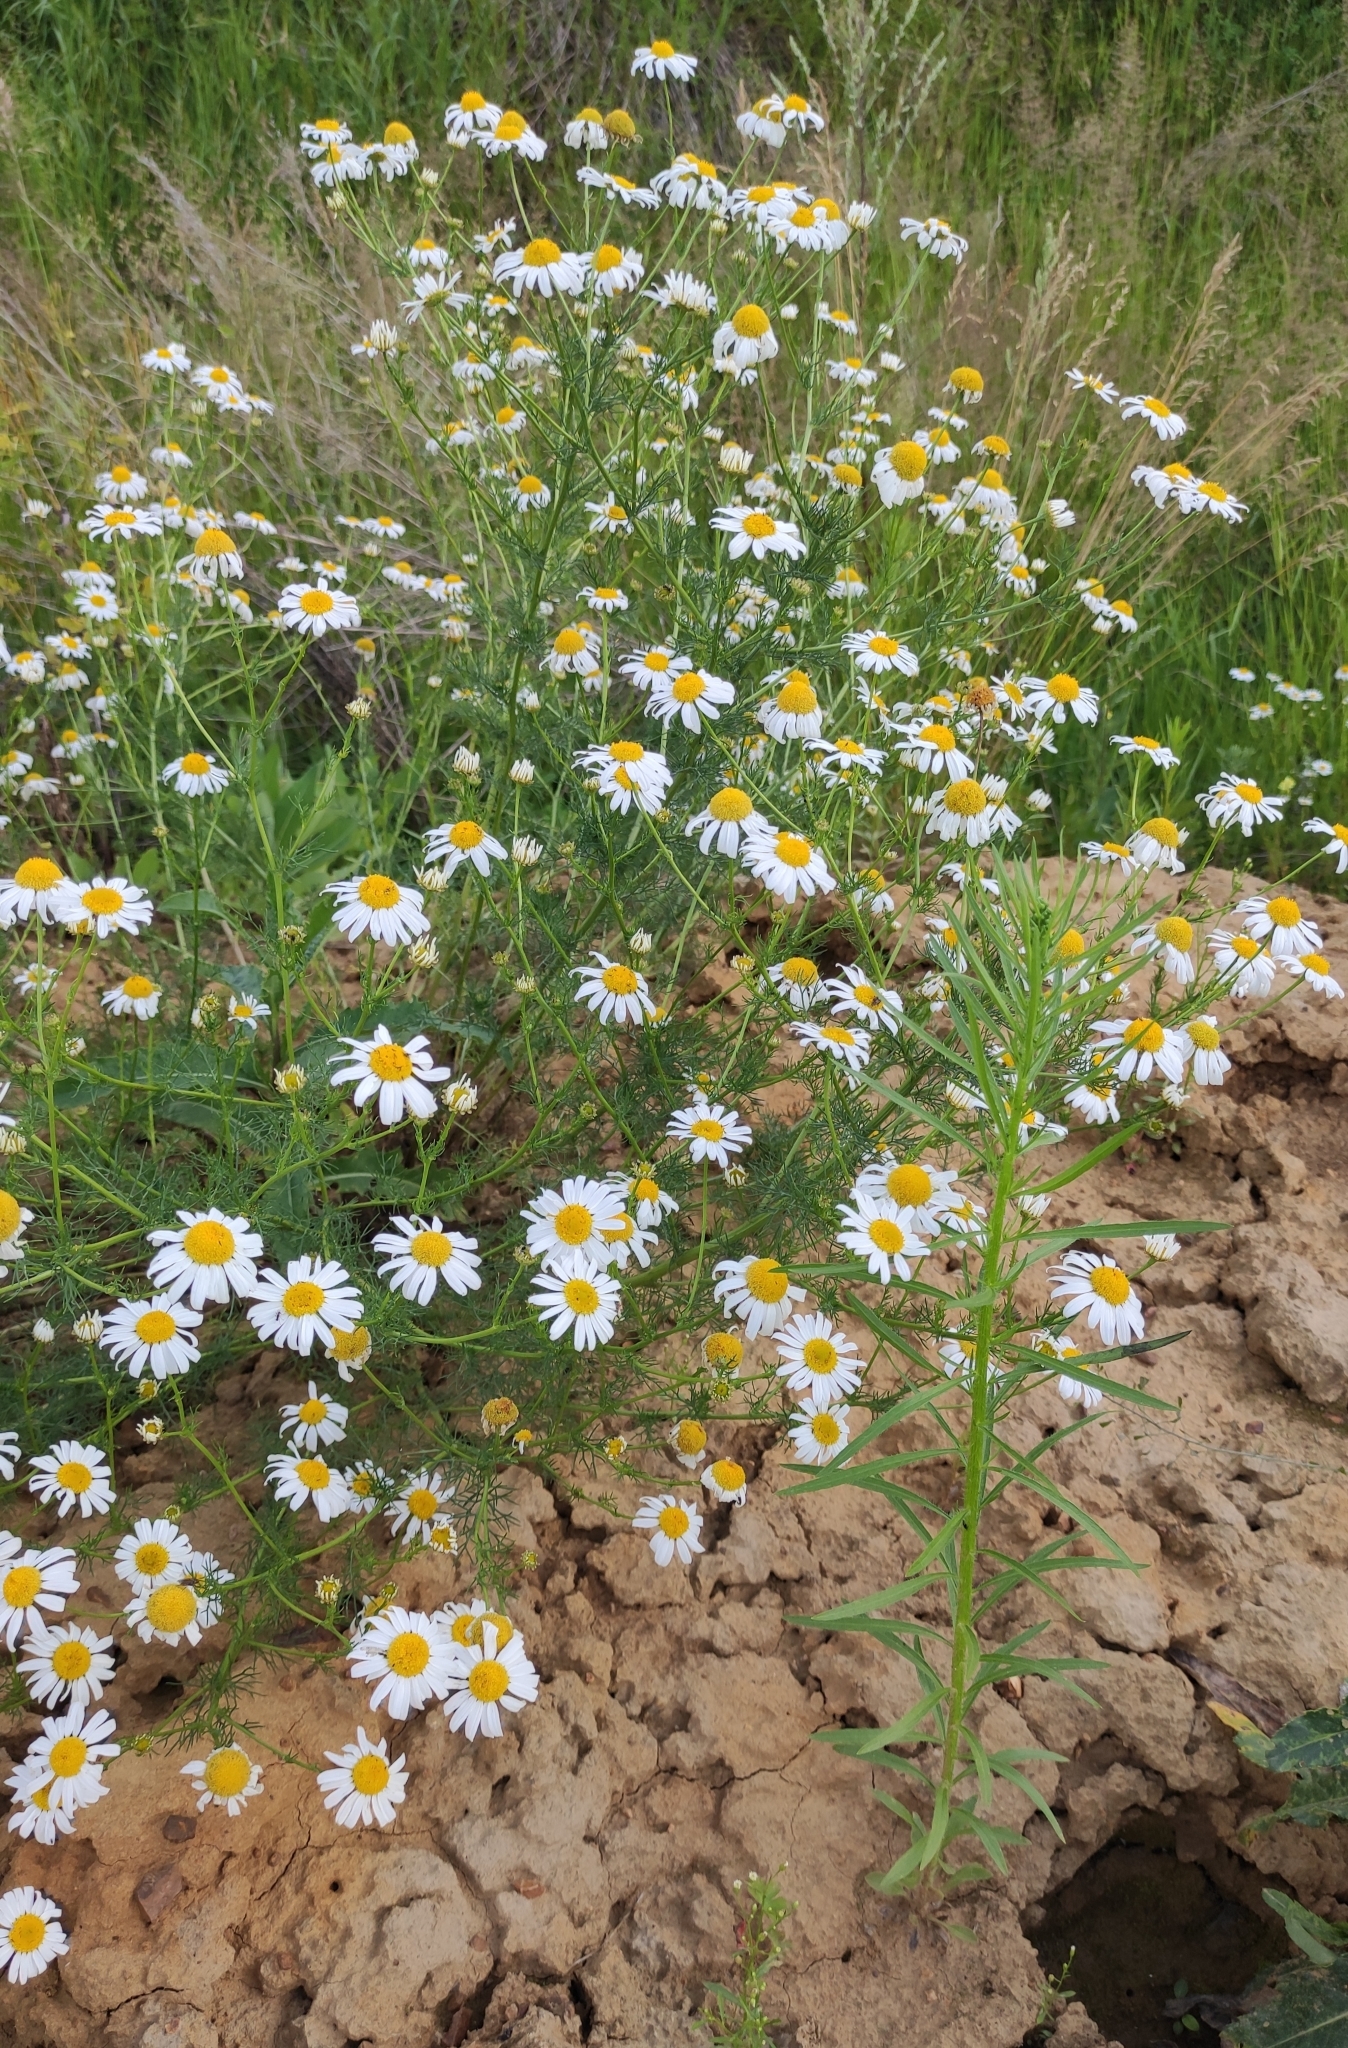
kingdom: Plantae
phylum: Tracheophyta
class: Magnoliopsida
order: Asterales
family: Asteraceae
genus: Tripleurospermum
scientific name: Tripleurospermum inodorum
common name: Scentless mayweed
